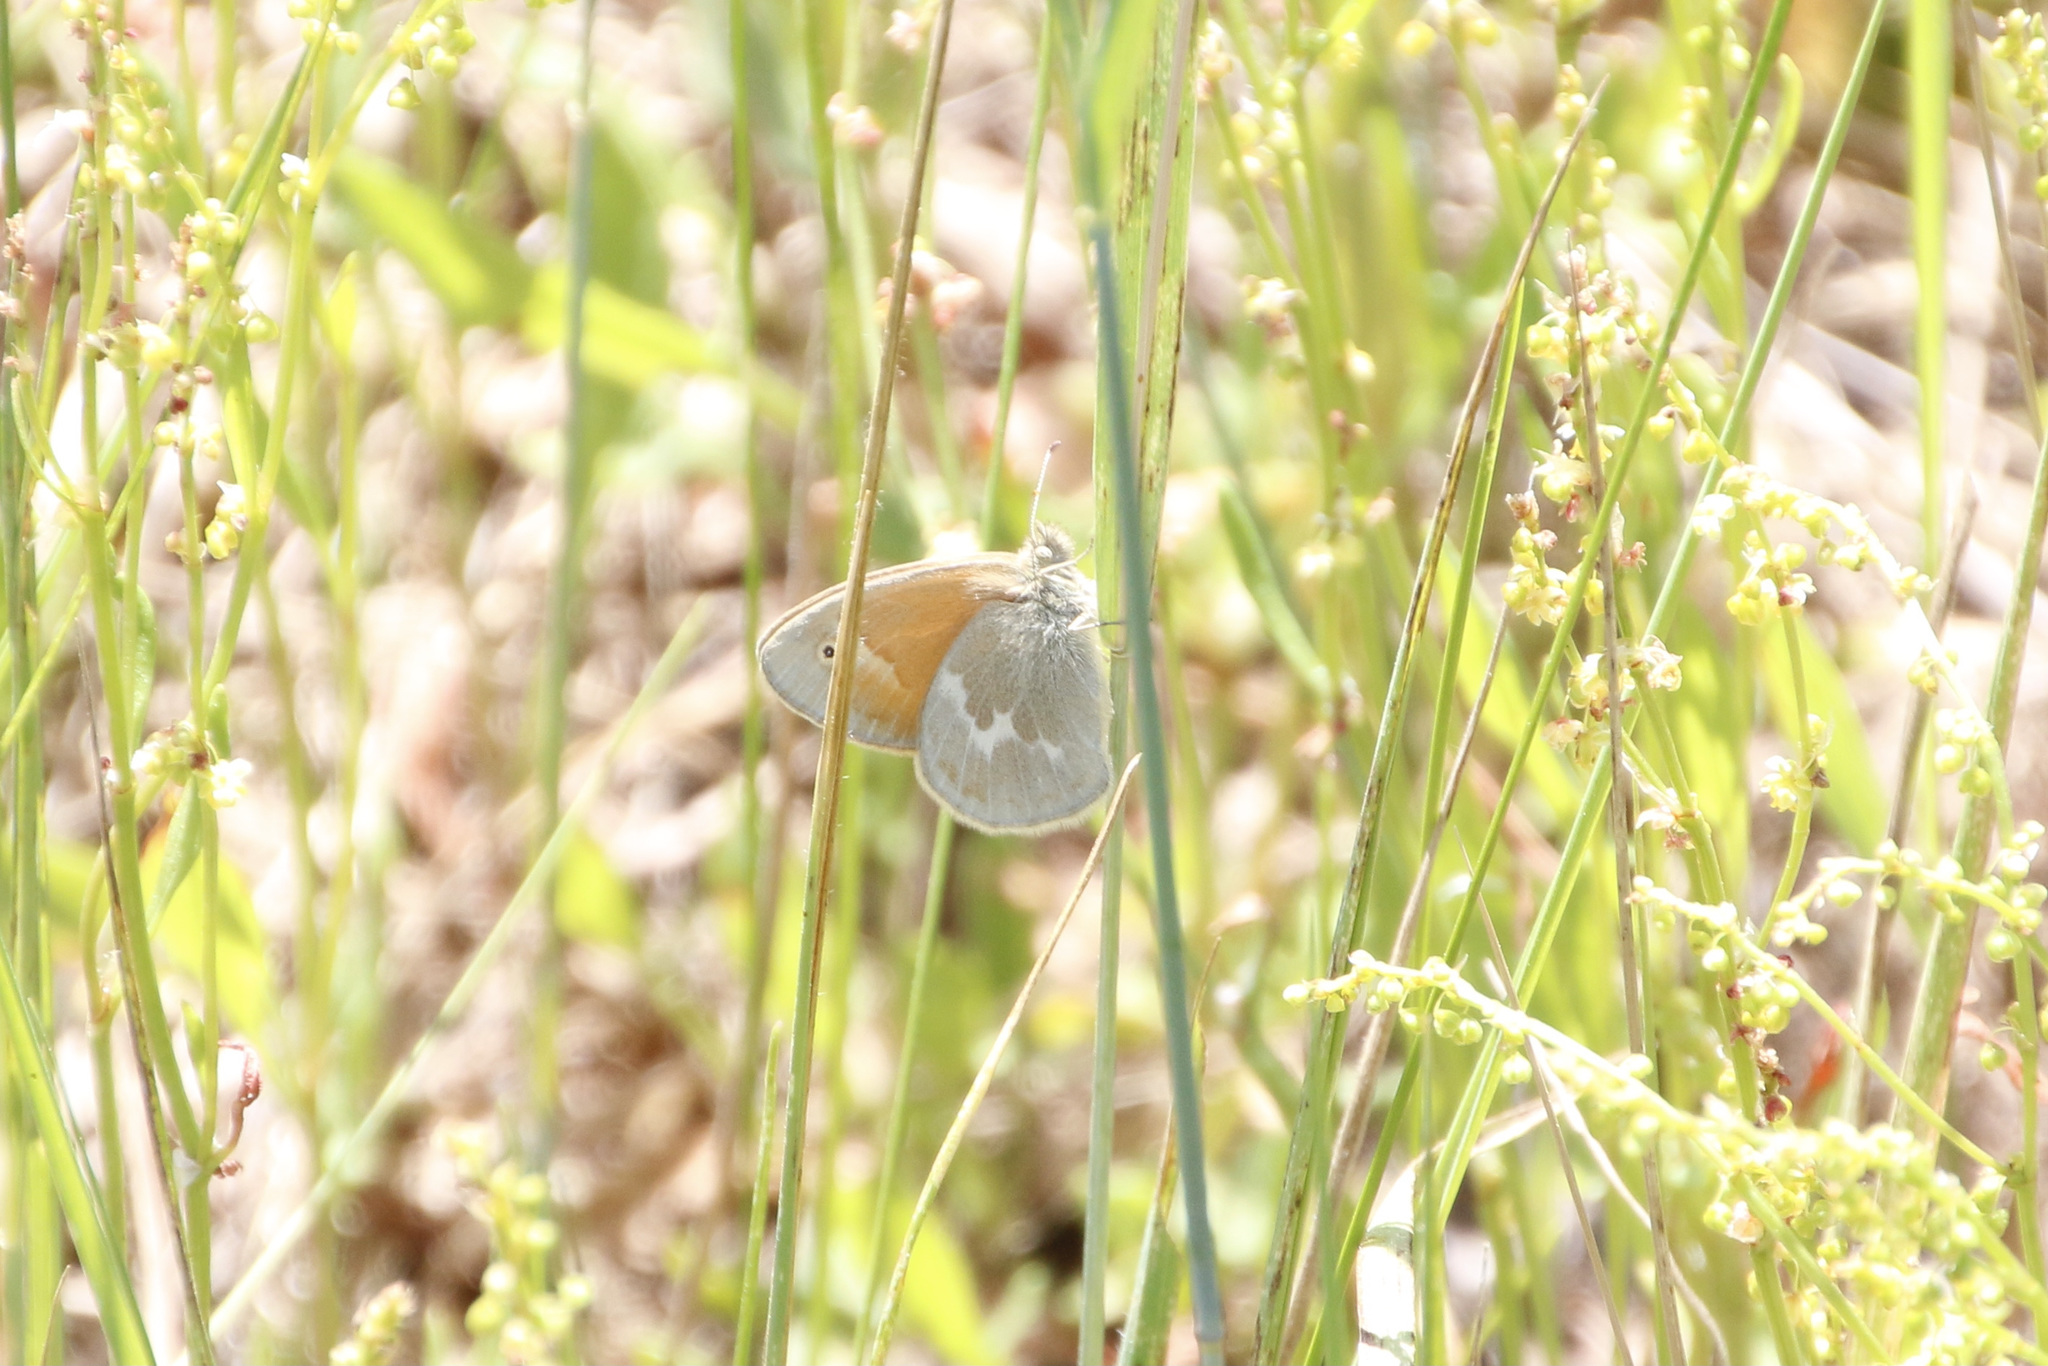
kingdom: Animalia
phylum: Arthropoda
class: Insecta
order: Lepidoptera
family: Nymphalidae
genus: Coenonympha
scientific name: Coenonympha california
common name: Common ringlet
